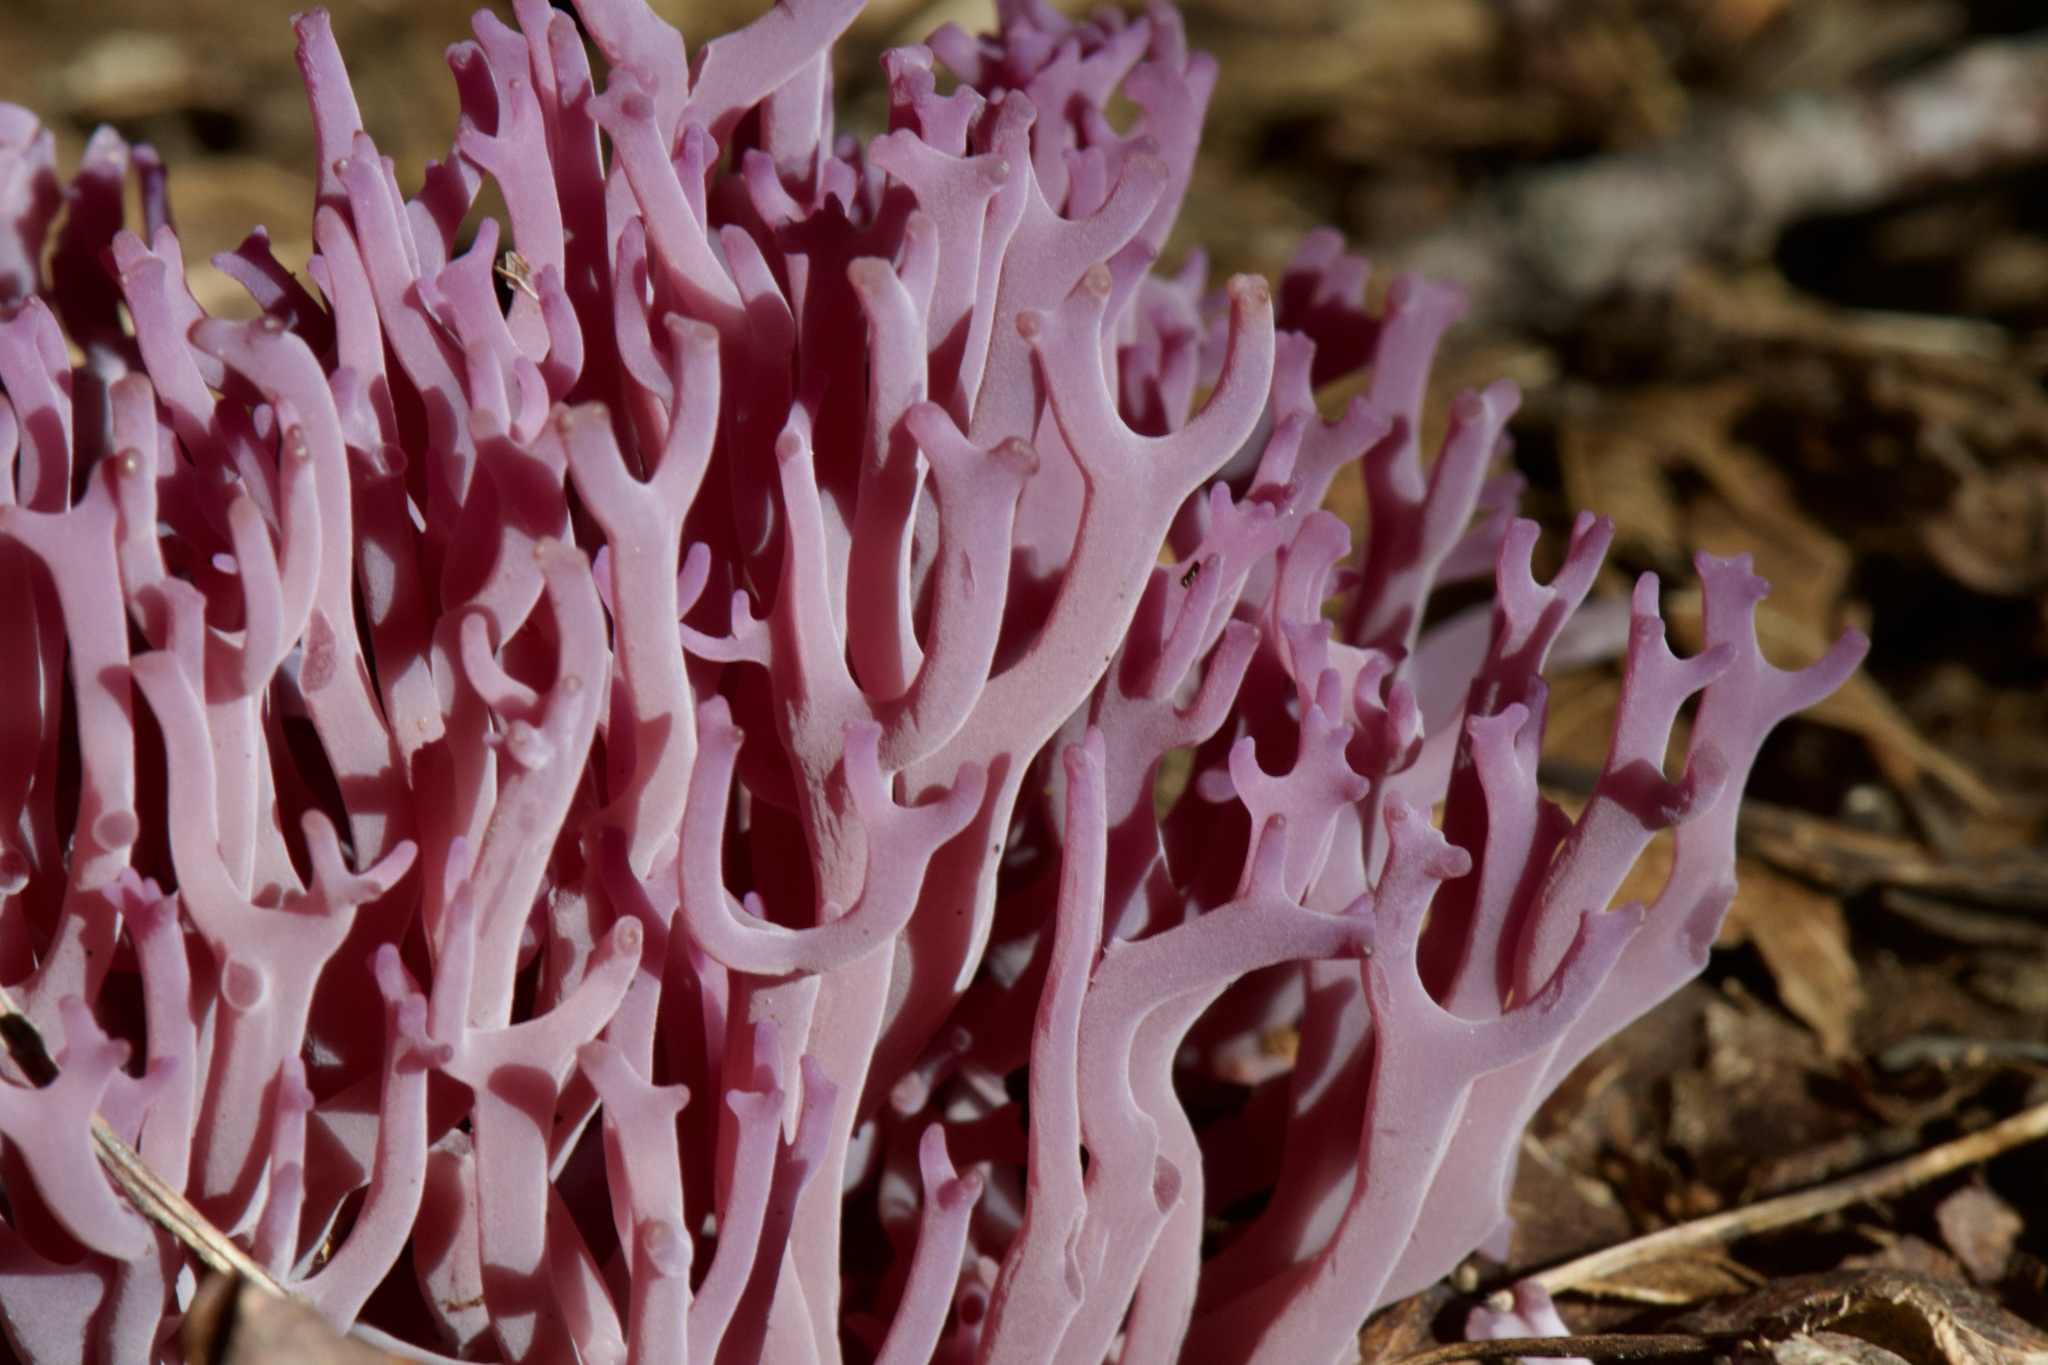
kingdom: Fungi
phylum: Basidiomycota
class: Agaricomycetes
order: Agaricales
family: Clavariaceae
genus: Clavaria
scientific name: Clavaria zollingeri
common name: Violet coral
